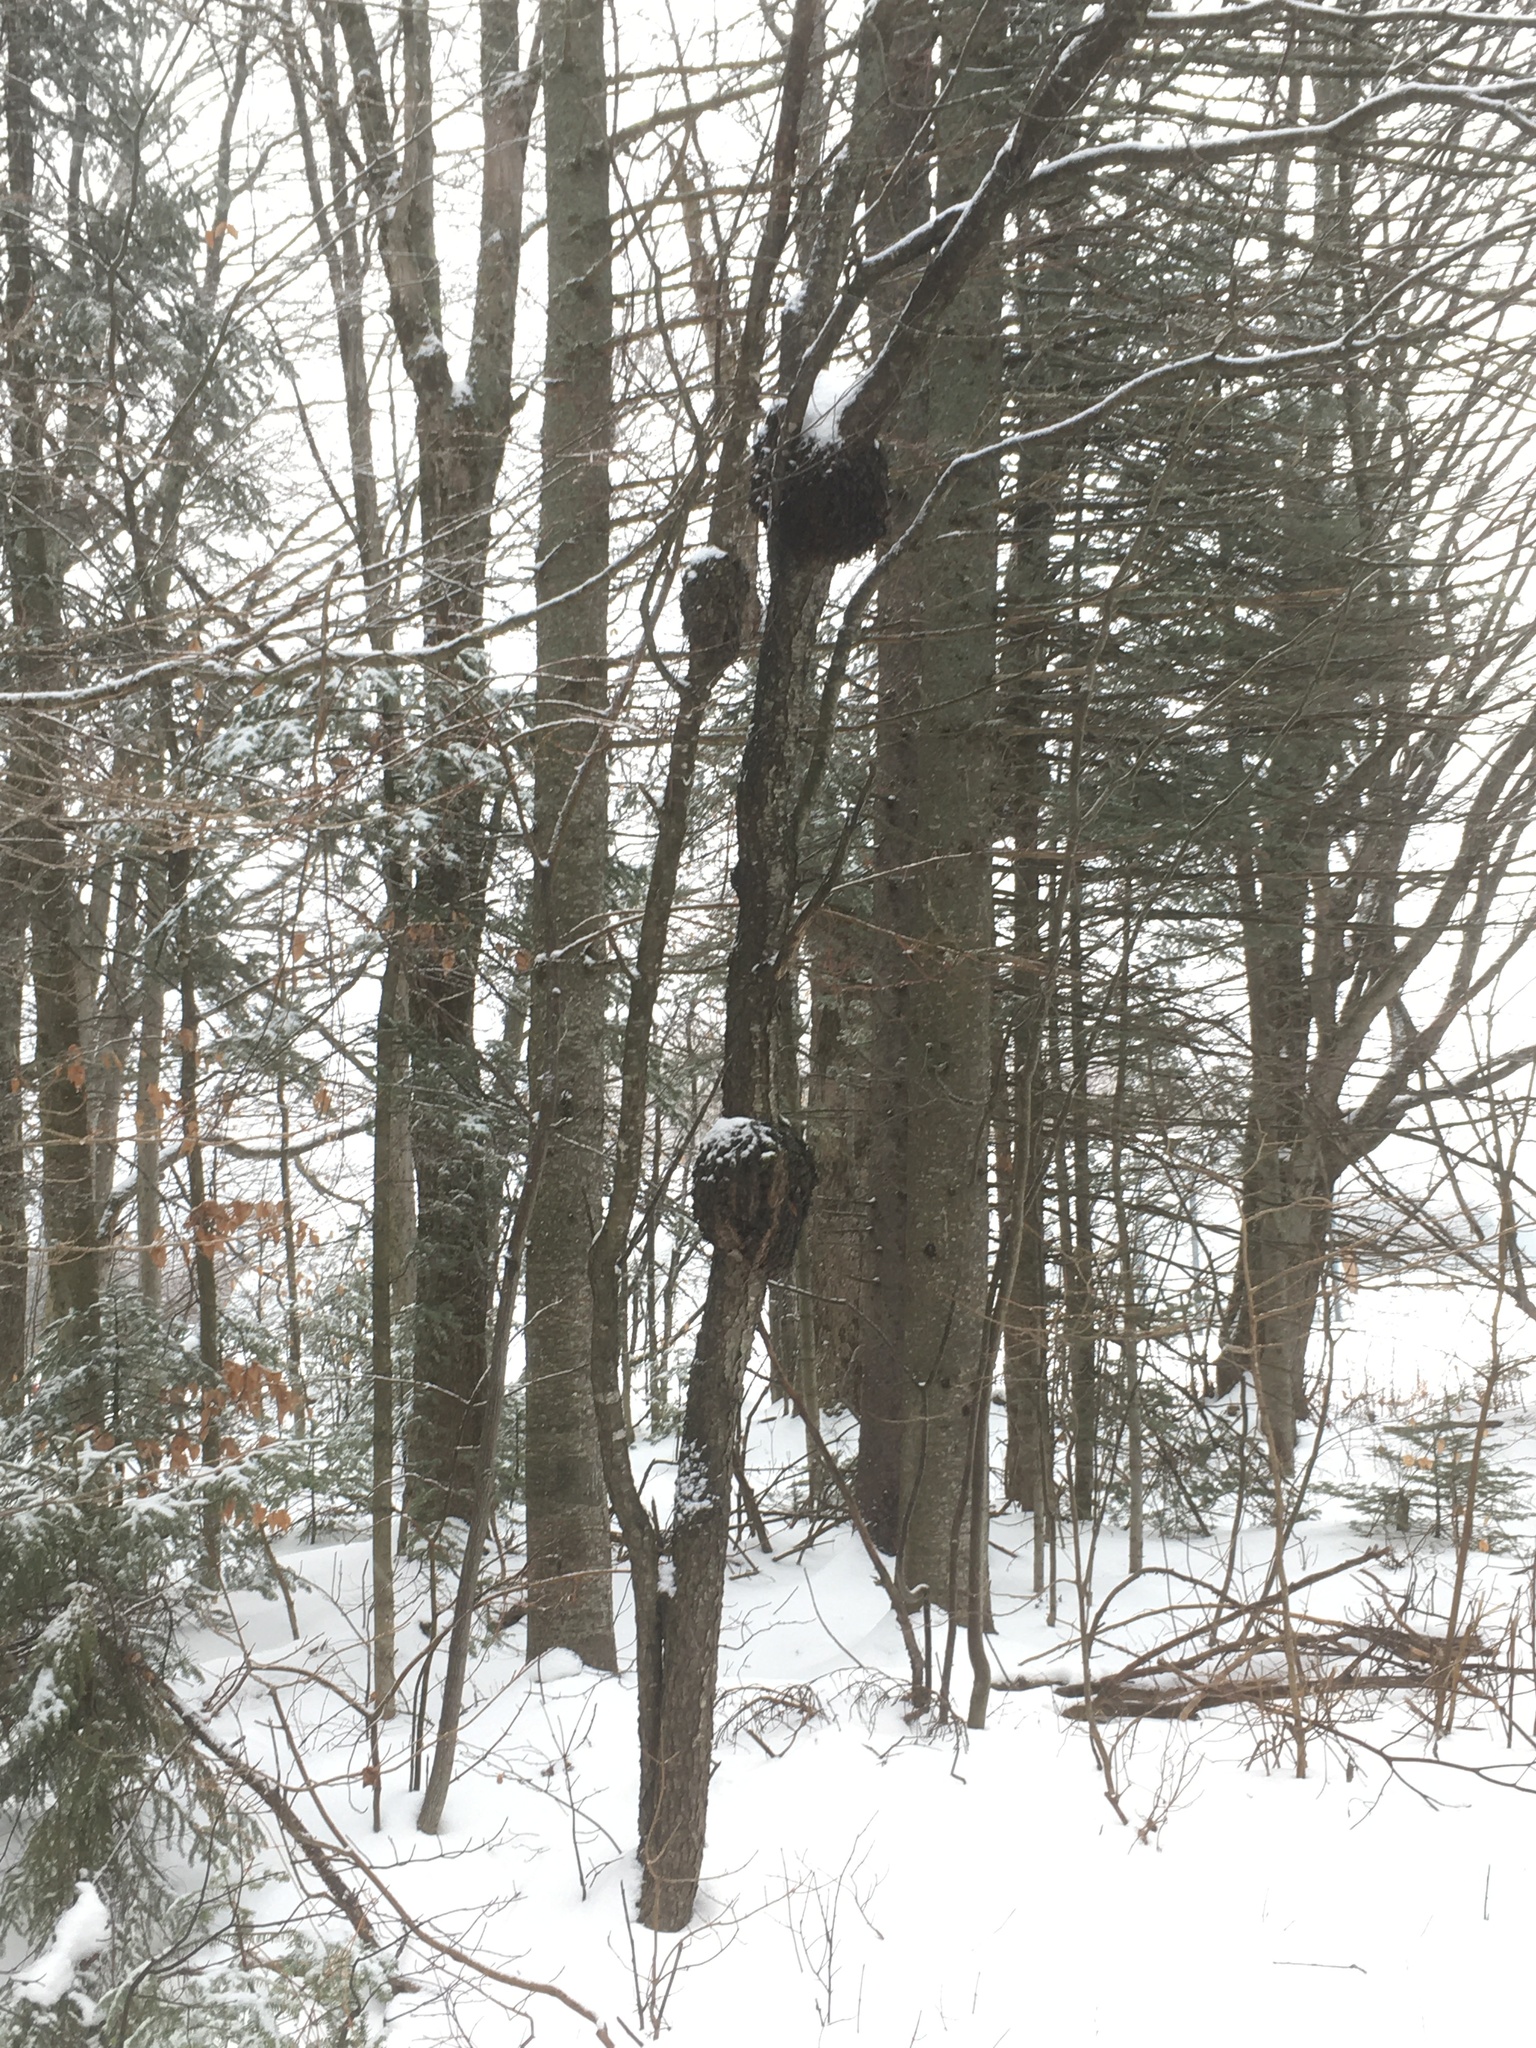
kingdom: Plantae
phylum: Tracheophyta
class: Magnoliopsida
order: Rosales
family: Rosaceae
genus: Prunus
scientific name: Prunus serotina
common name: Black cherry
